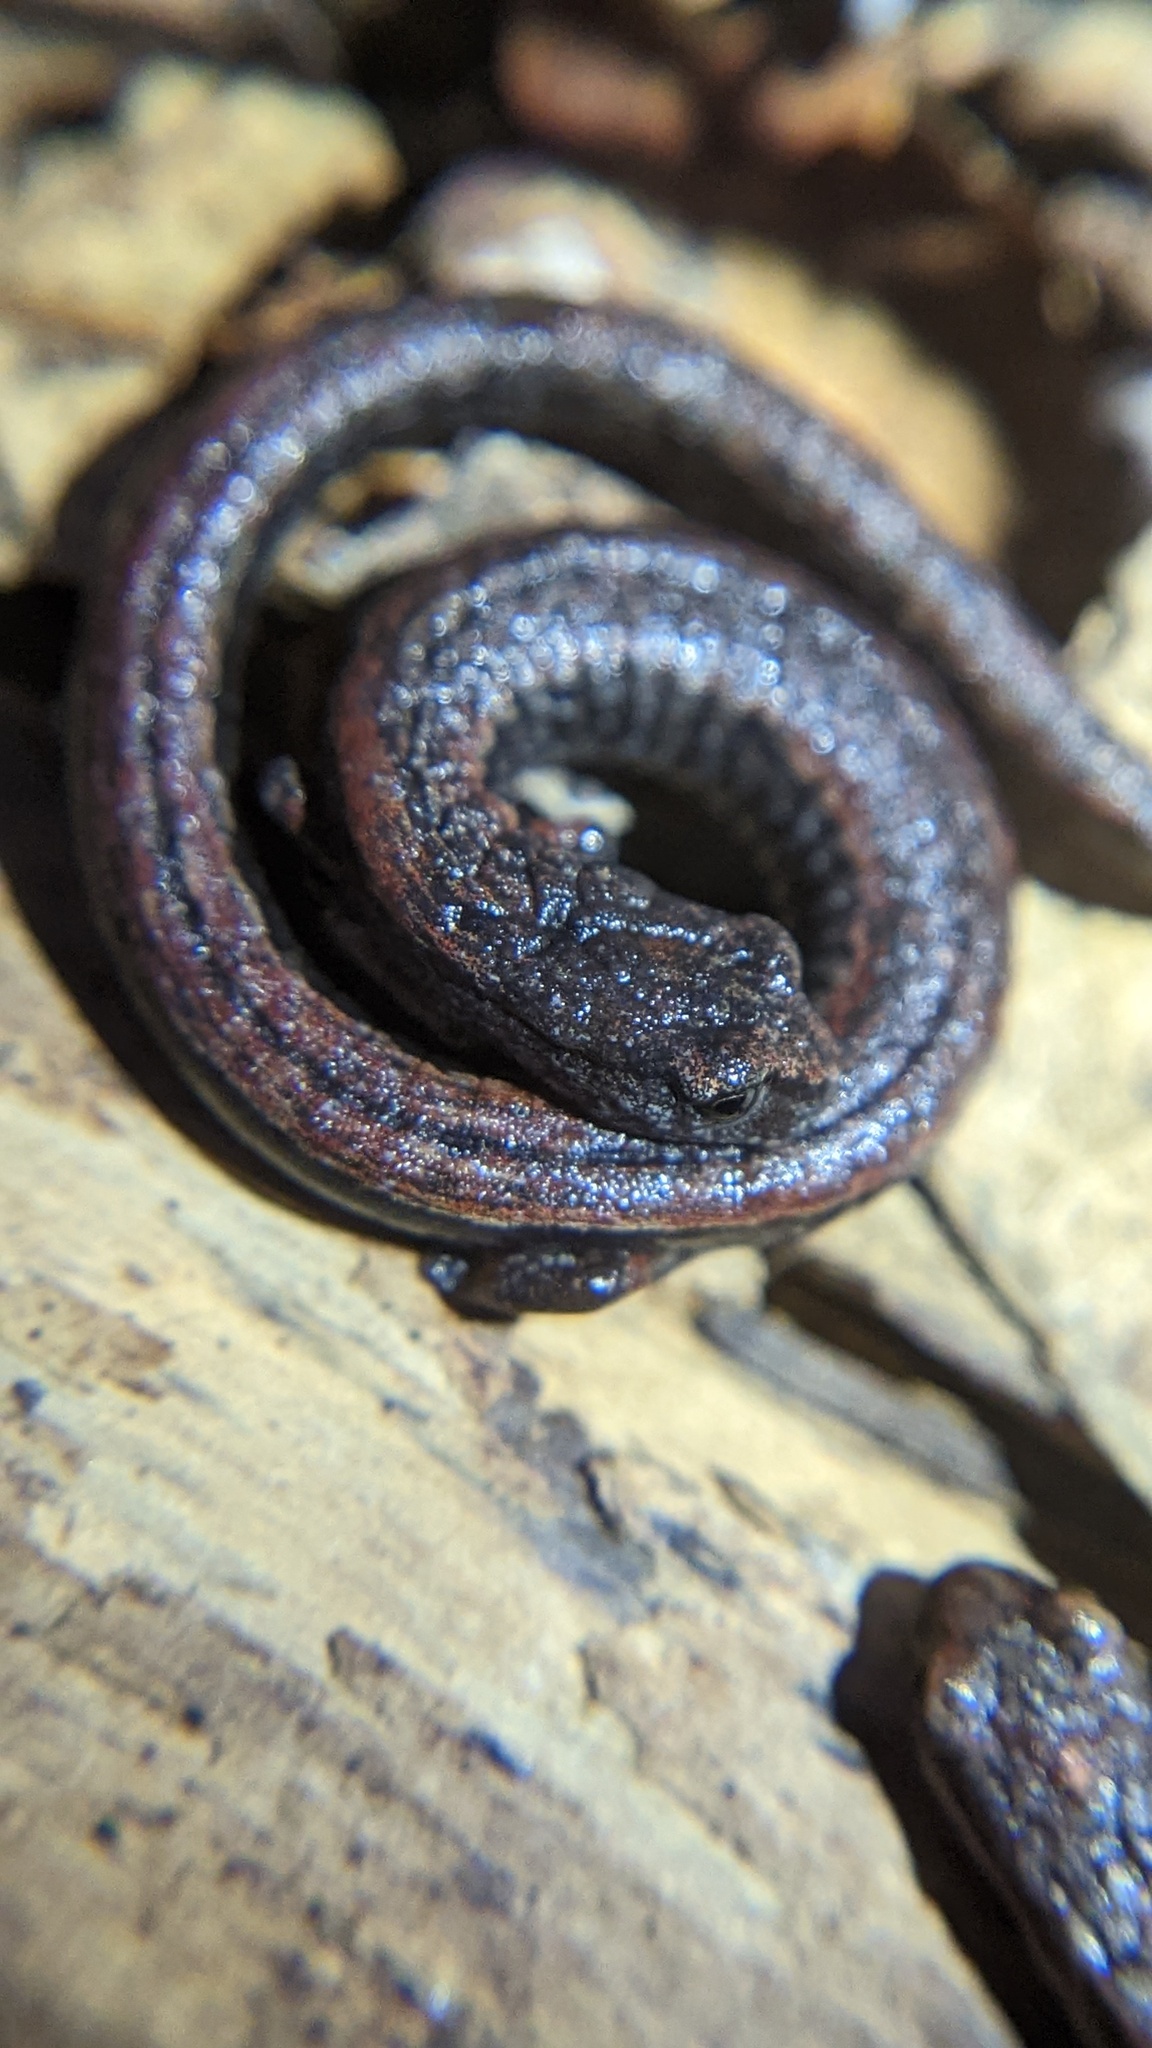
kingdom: Animalia
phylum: Chordata
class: Amphibia
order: Caudata
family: Plethodontidae
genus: Batrachoseps
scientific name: Batrachoseps attenuatus
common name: California slender salamander
